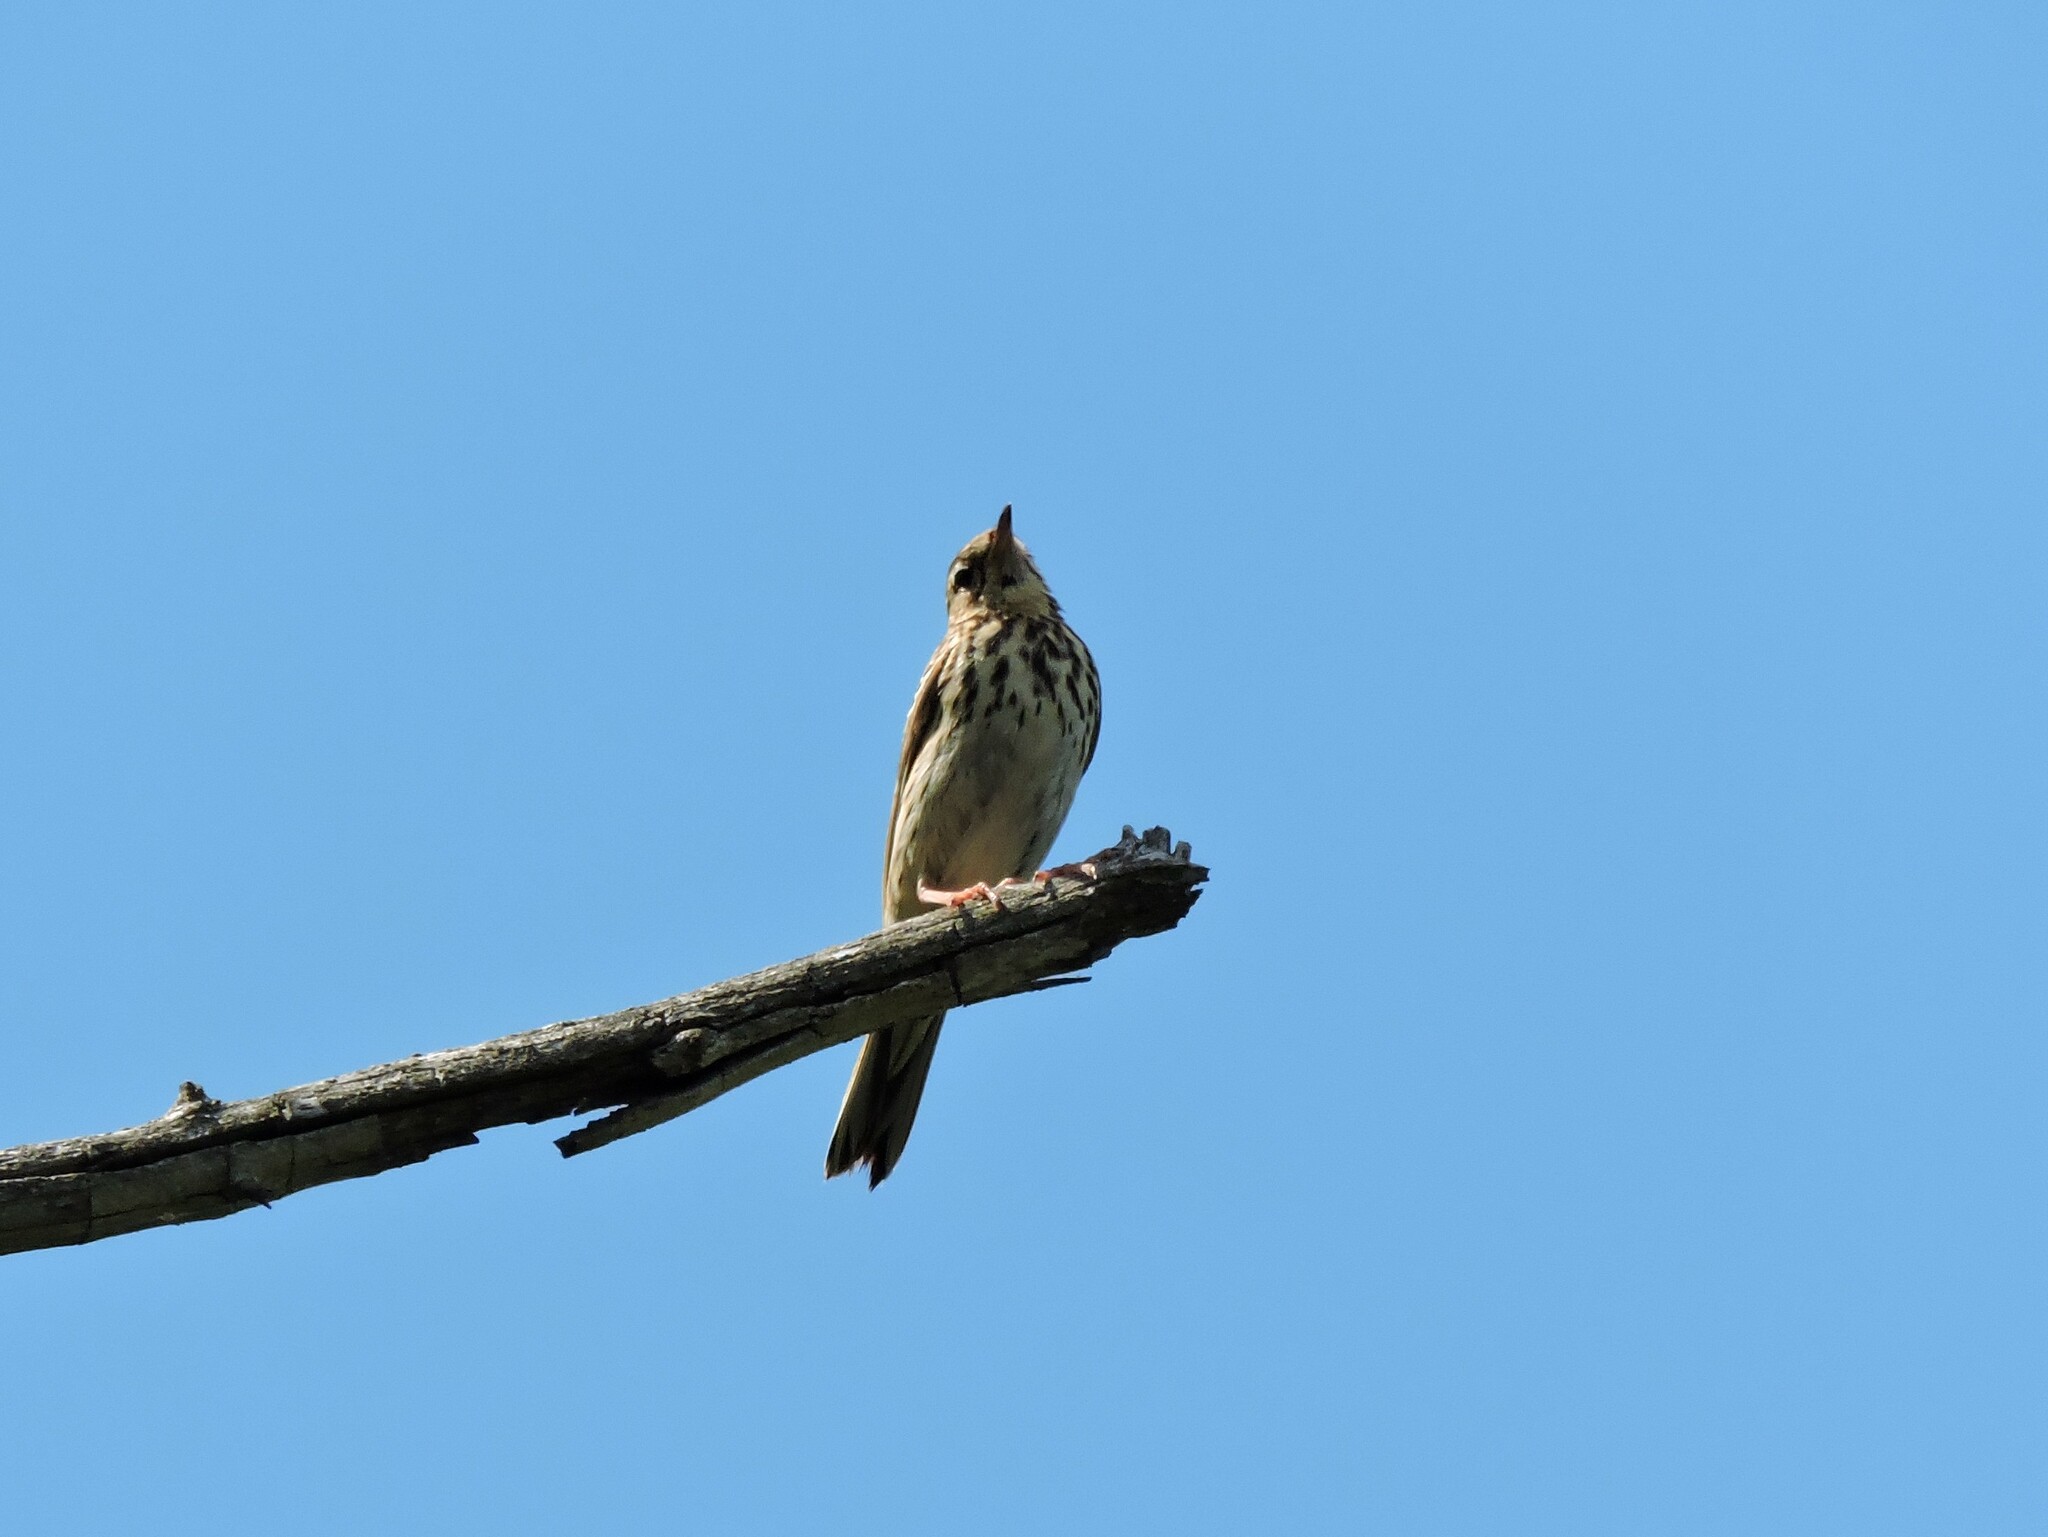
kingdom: Animalia
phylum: Chordata
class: Aves
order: Passeriformes
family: Motacillidae
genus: Anthus
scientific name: Anthus trivialis
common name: Tree pipit
